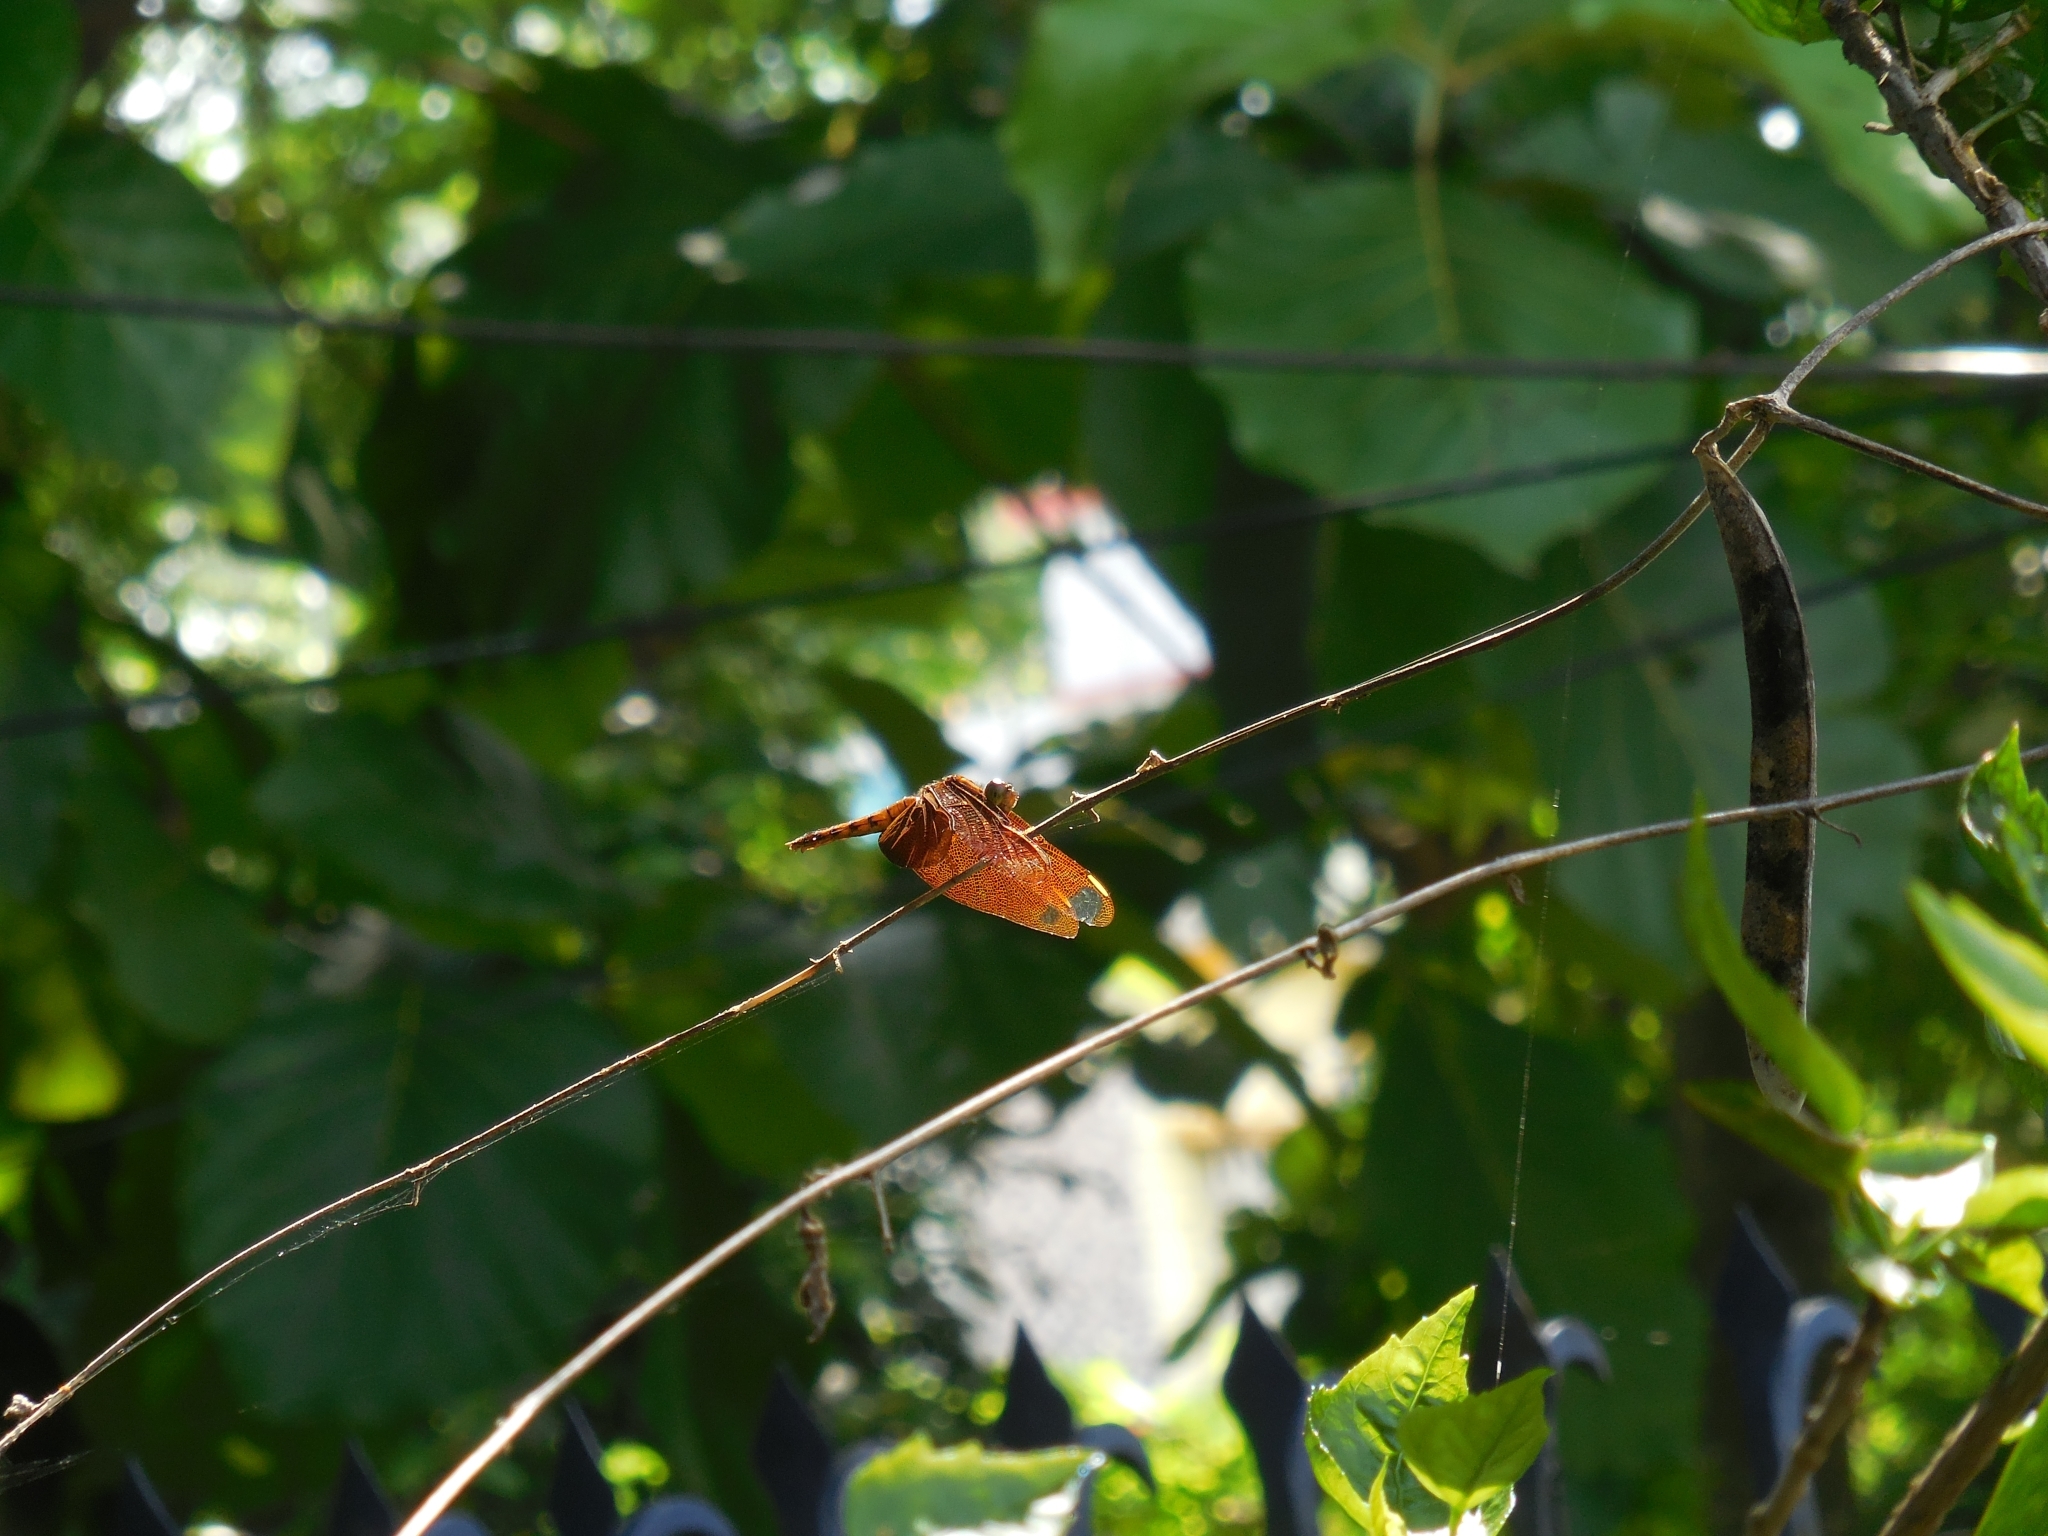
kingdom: Animalia
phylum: Arthropoda
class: Insecta
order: Odonata
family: Libellulidae
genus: Neurothemis
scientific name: Neurothemis fulvia
